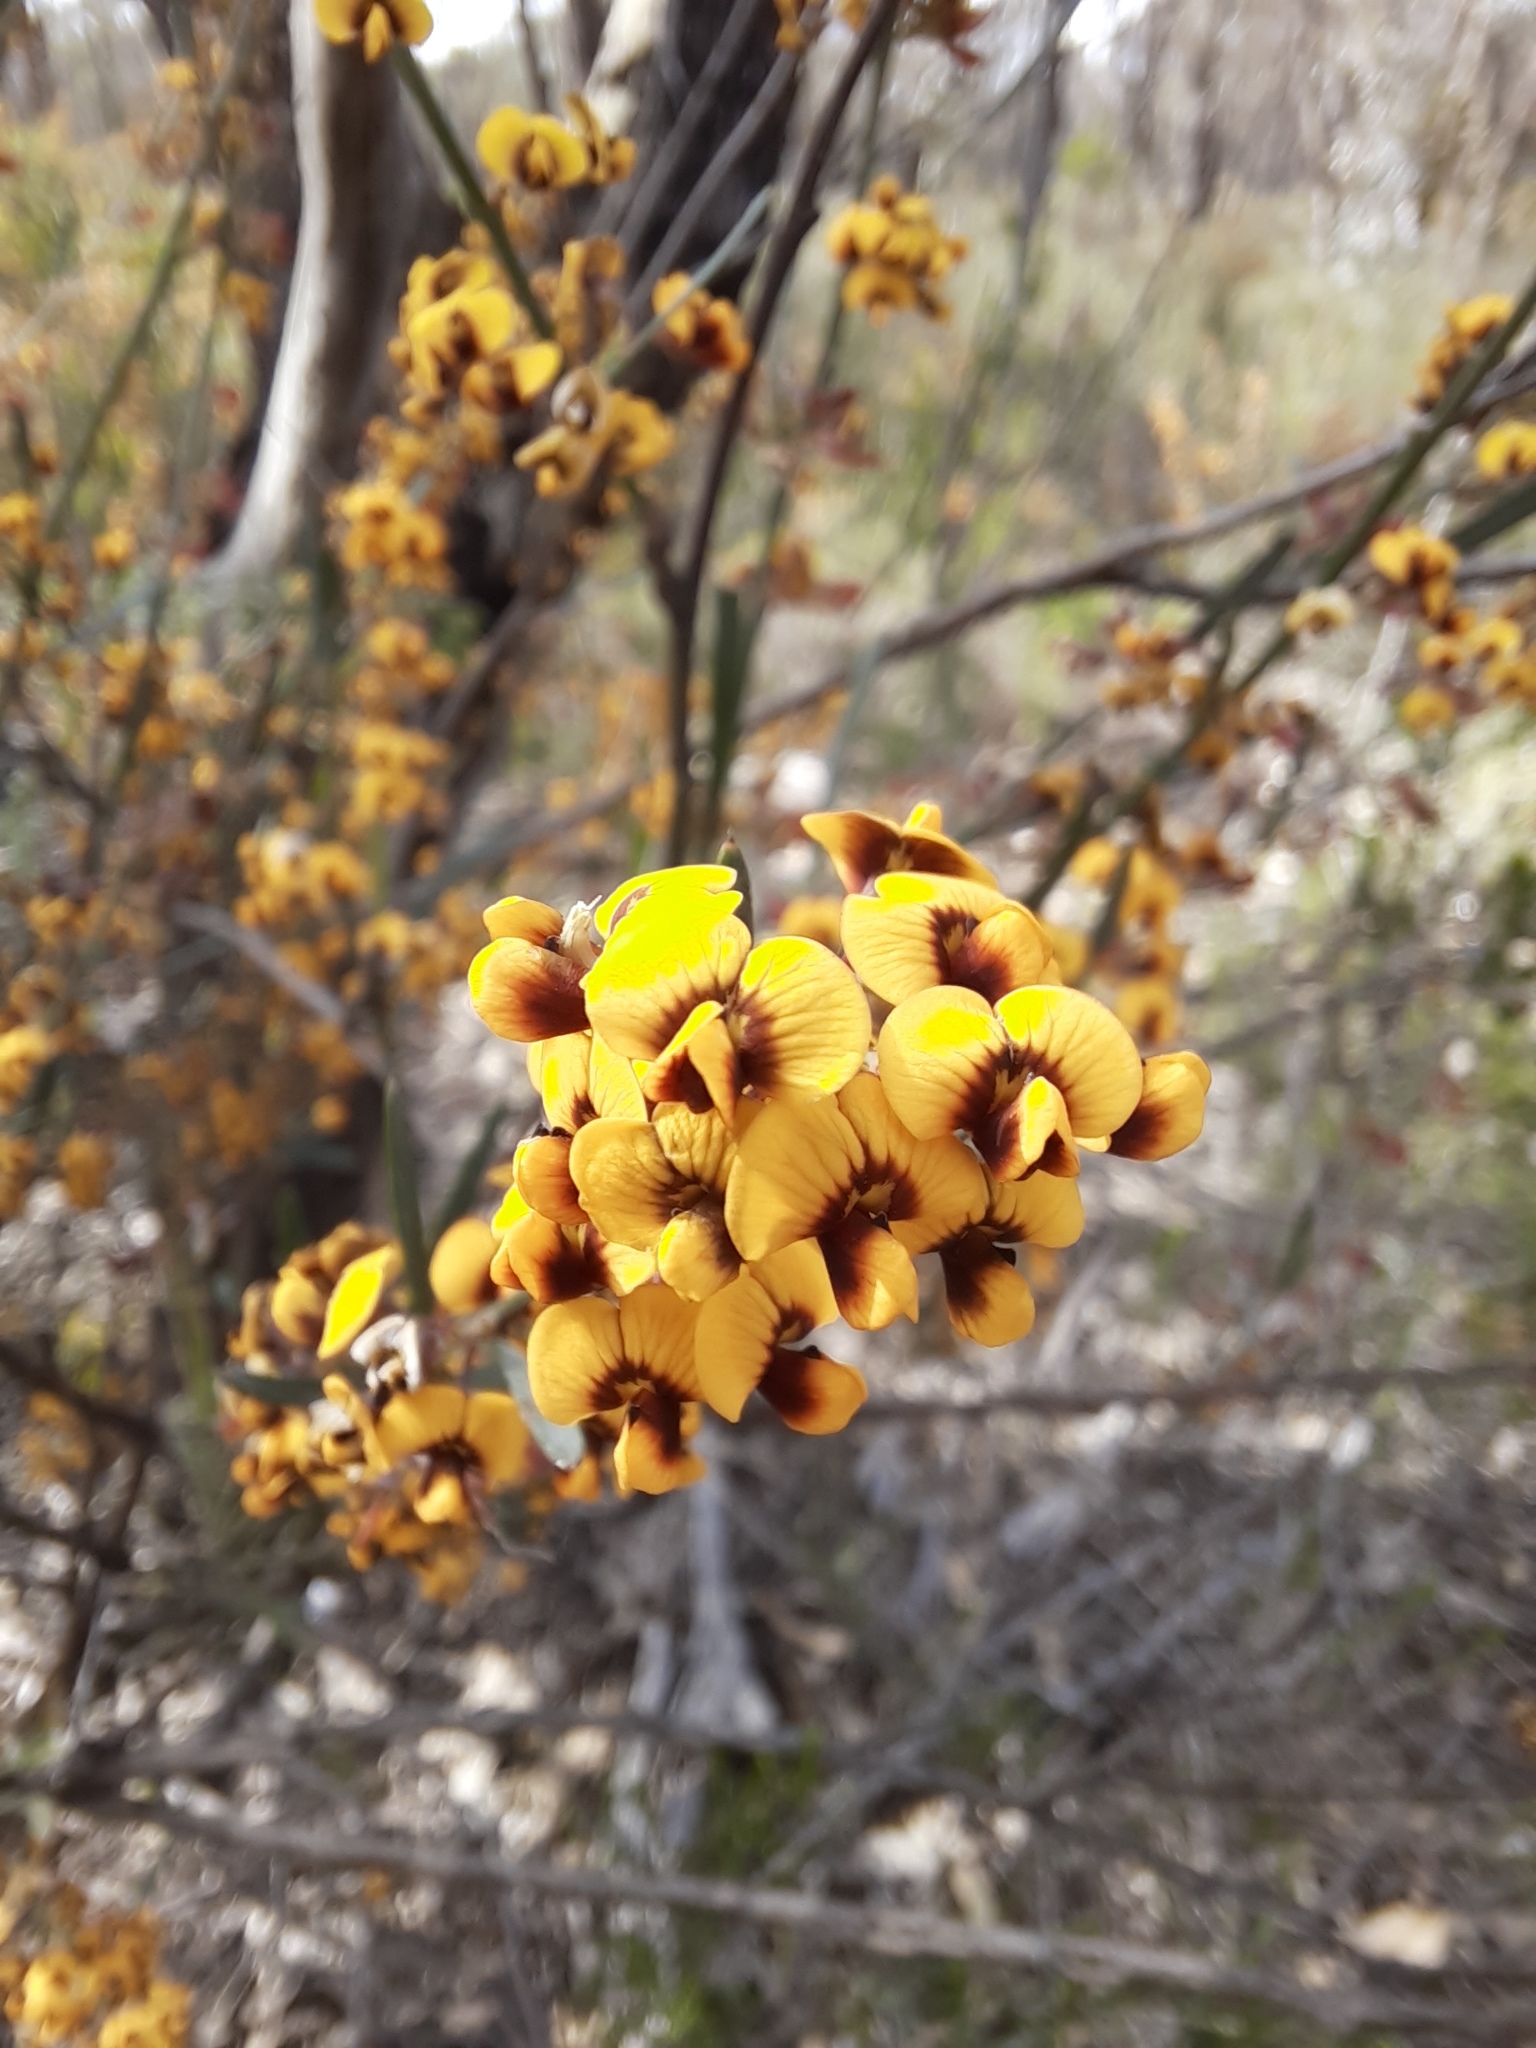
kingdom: Plantae
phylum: Tracheophyta
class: Magnoliopsida
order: Fabales
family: Fabaceae
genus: Daviesia
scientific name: Daviesia leptophylla
